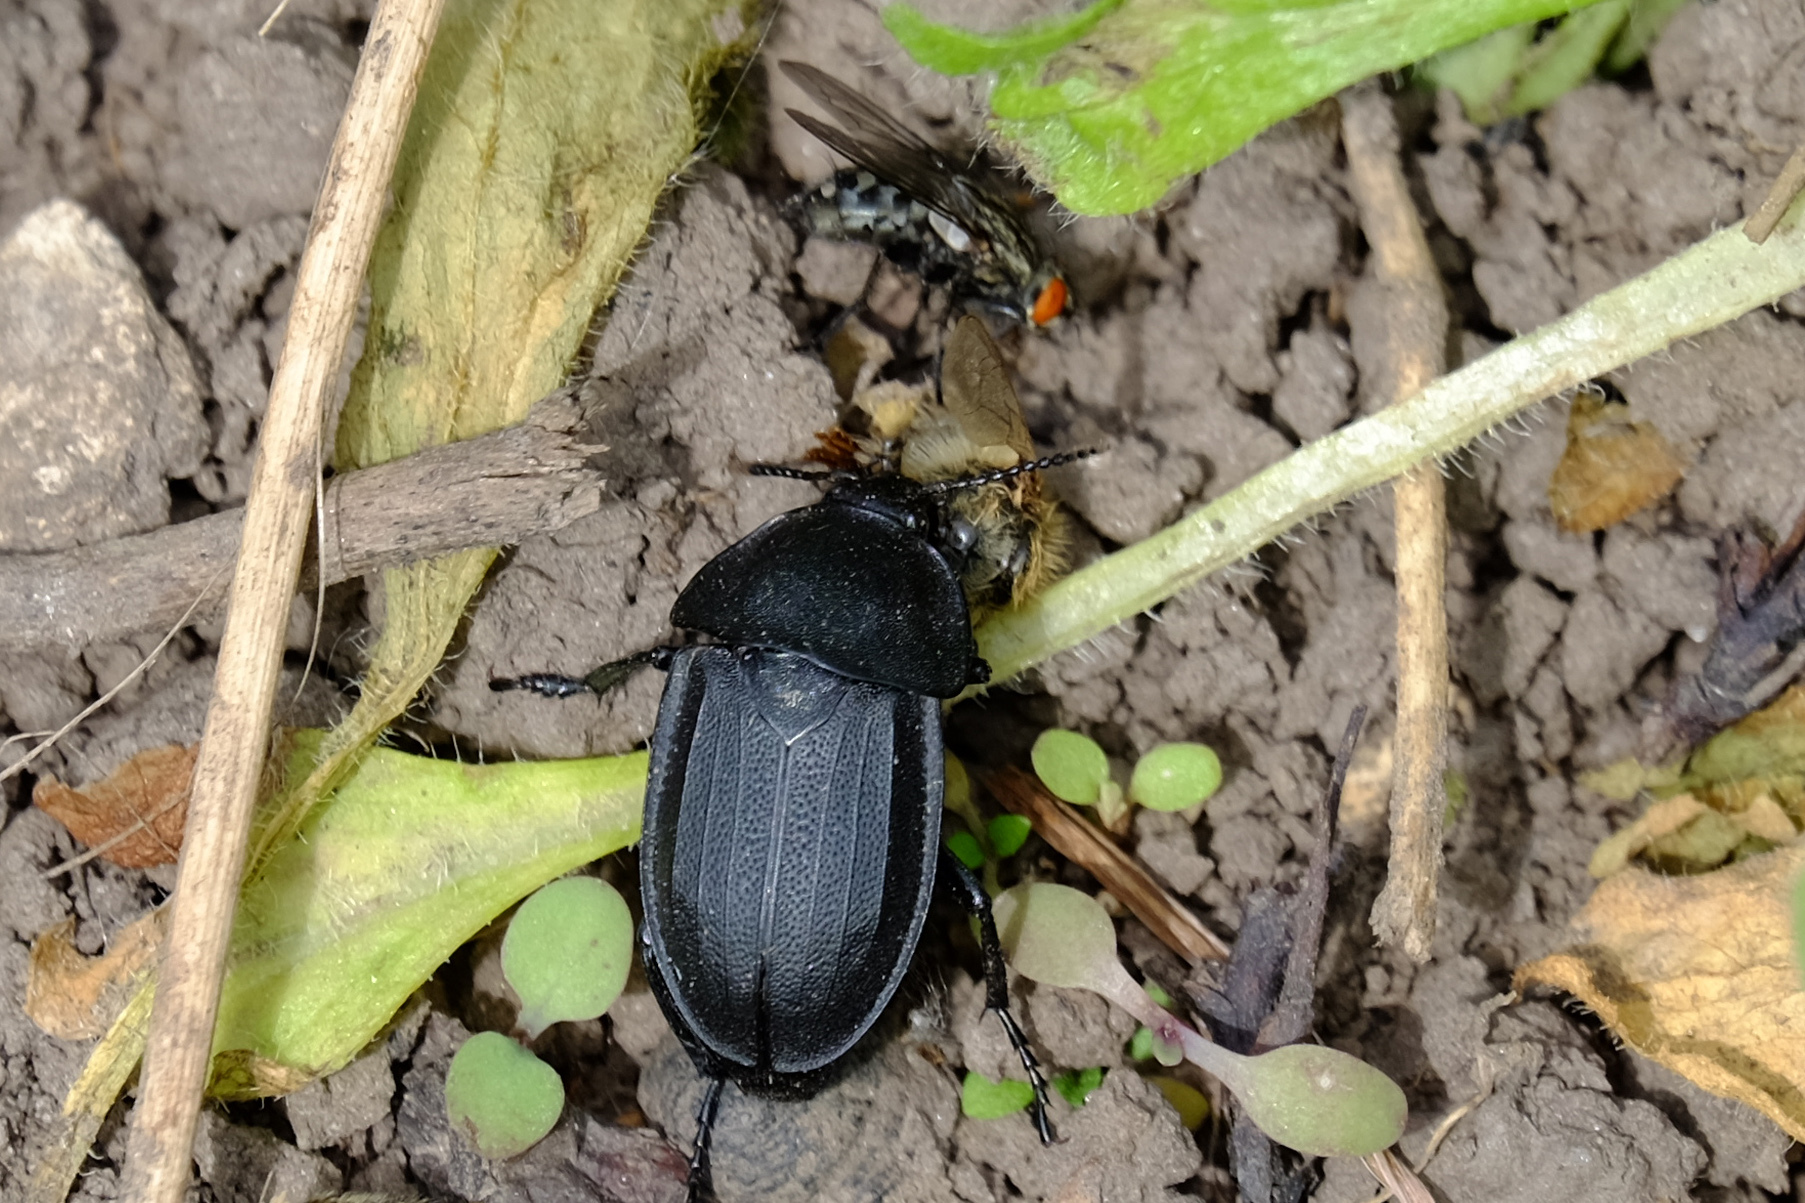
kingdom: Animalia
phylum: Arthropoda
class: Insecta
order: Coleoptera
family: Staphylinidae
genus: Silpha
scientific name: Silpha obscura
